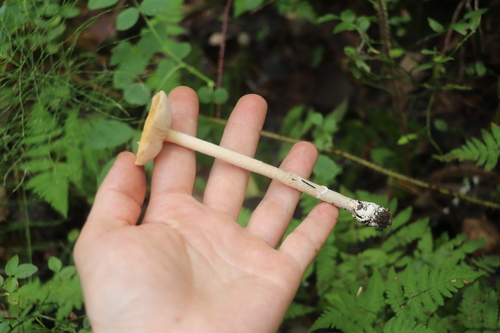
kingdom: Fungi
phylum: Basidiomycota
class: Agaricomycetes
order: Agaricales
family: Amanitaceae
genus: Amanita
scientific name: Amanita crocea
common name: Orange grisette
